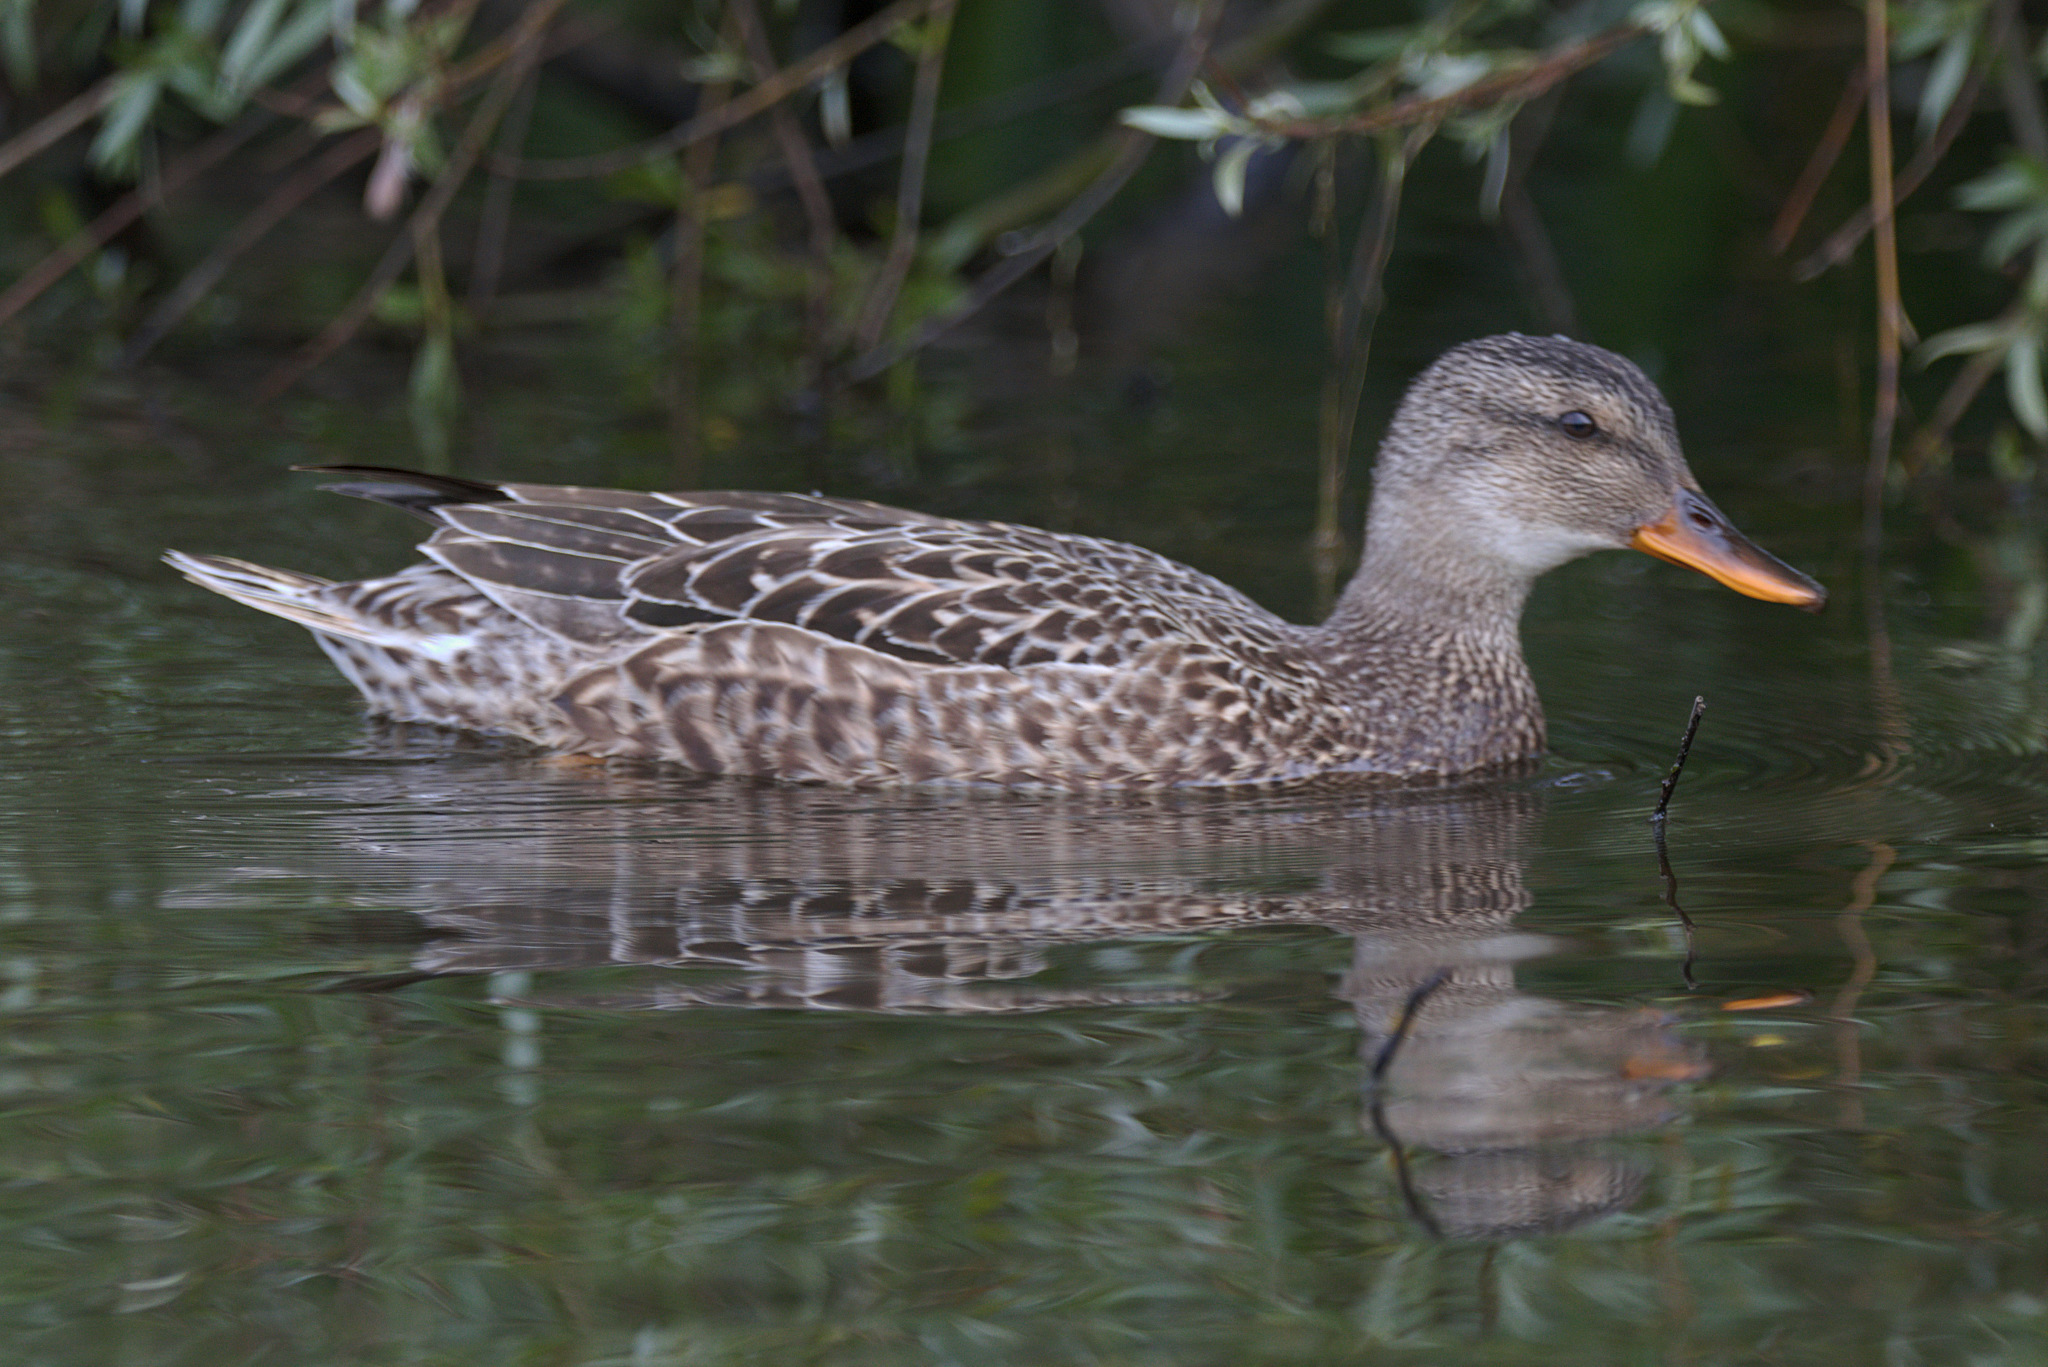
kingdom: Animalia
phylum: Chordata
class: Aves
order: Anseriformes
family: Anatidae
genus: Mareca
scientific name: Mareca strepera
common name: Gadwall
